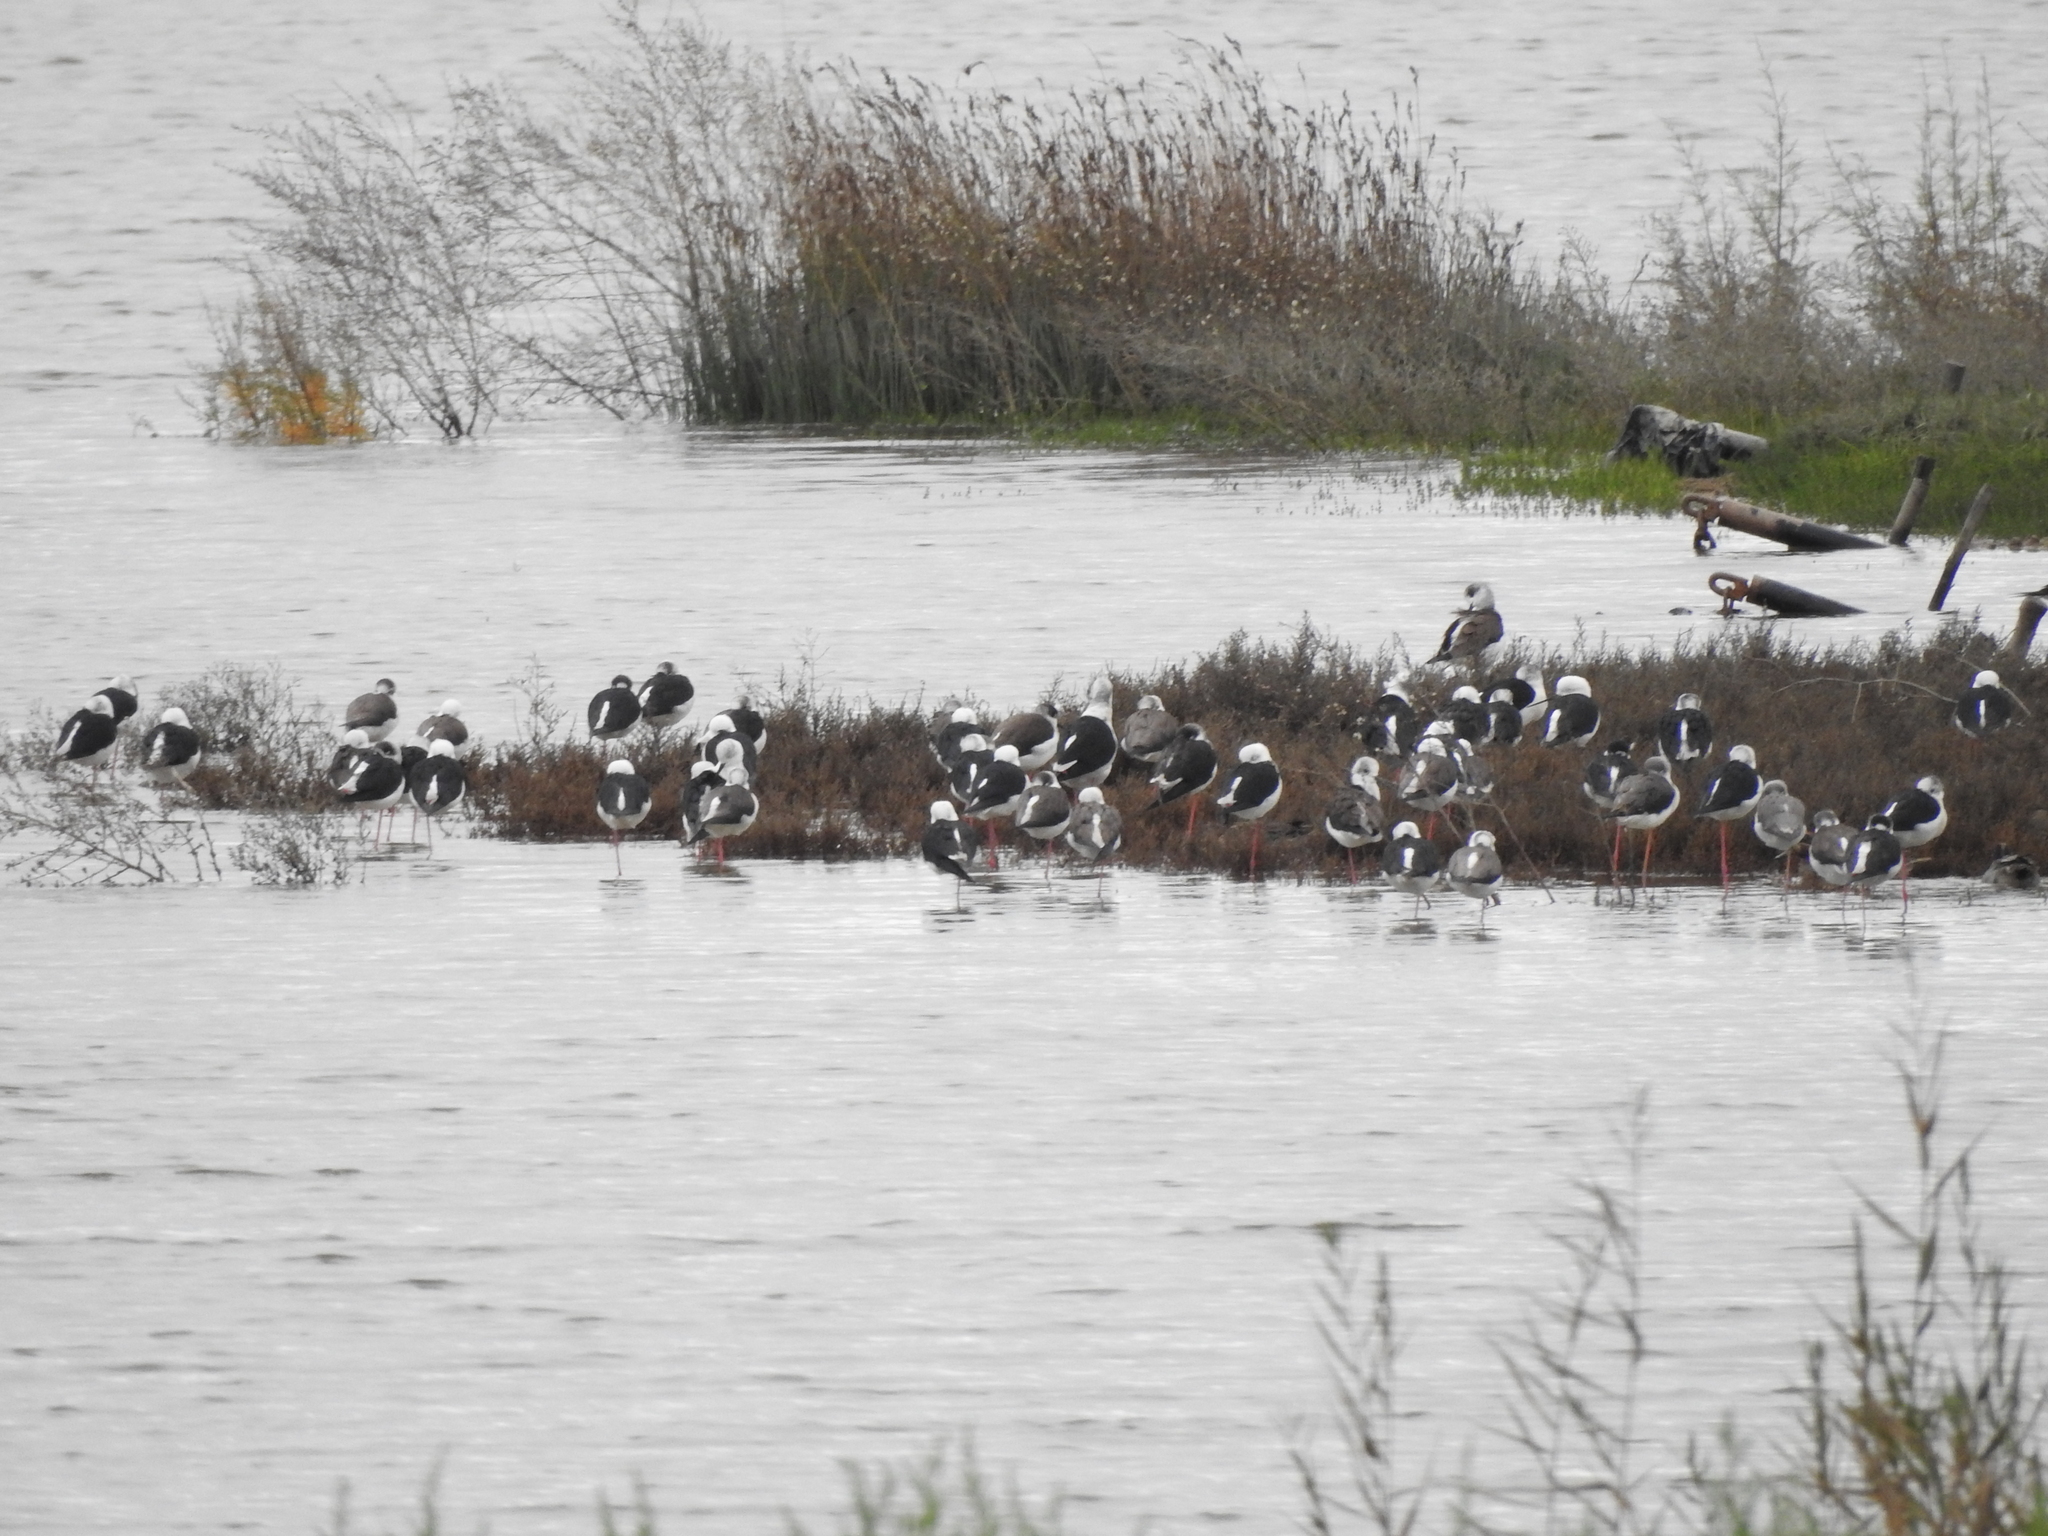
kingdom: Animalia
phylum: Chordata
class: Aves
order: Charadriiformes
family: Recurvirostridae
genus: Himantopus
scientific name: Himantopus himantopus
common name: Black-winged stilt
